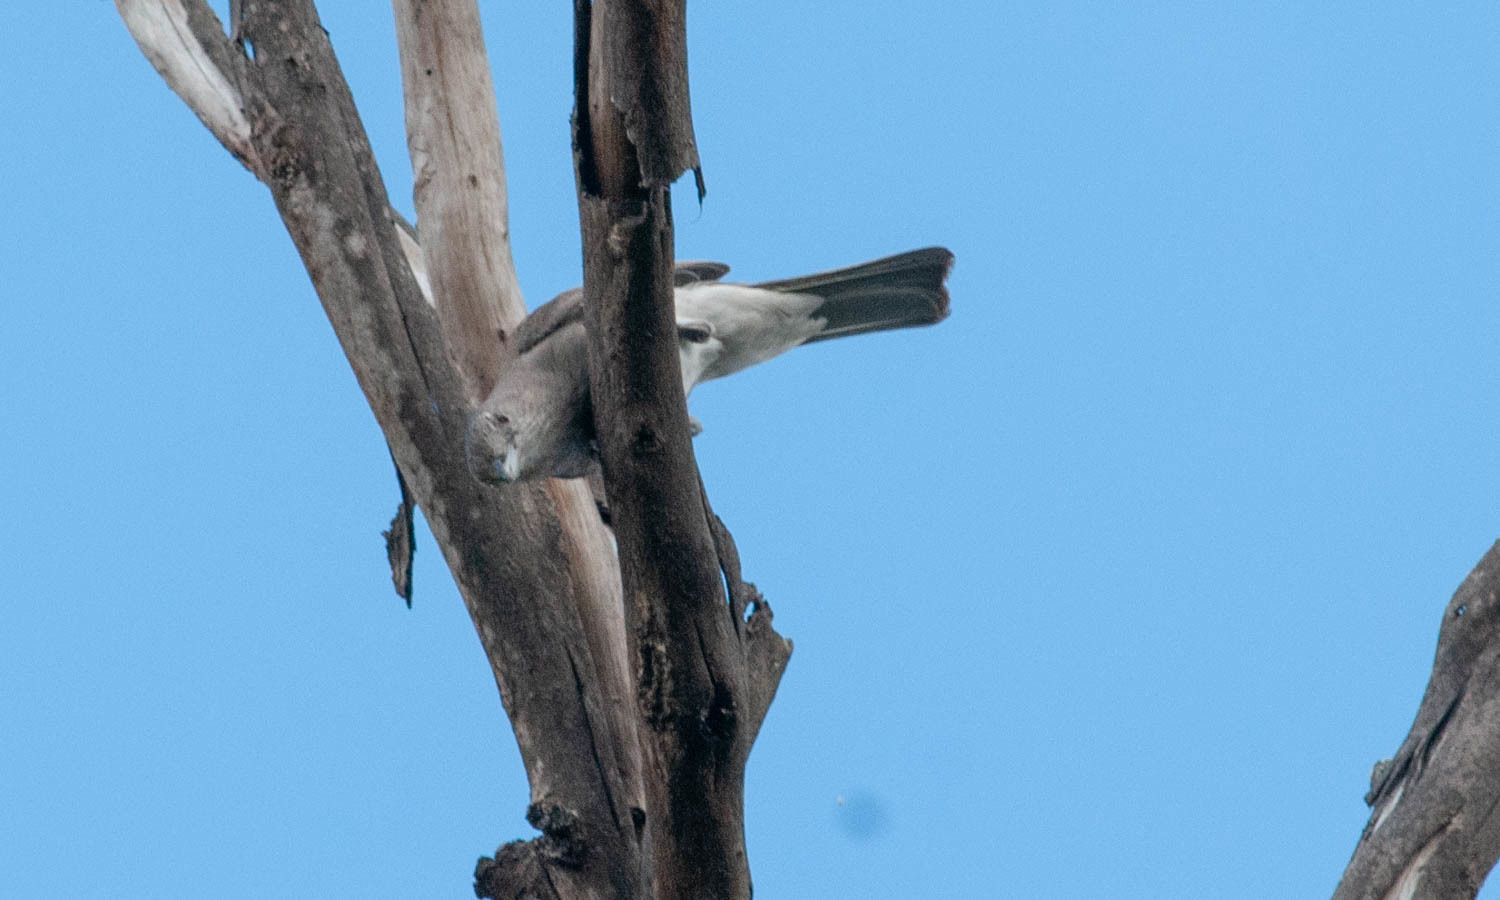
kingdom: Animalia
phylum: Chordata
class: Aves
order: Passeriformes
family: Pachycephalidae
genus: Colluricincla
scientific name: Colluricincla harmonica
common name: Grey shrikethrush
